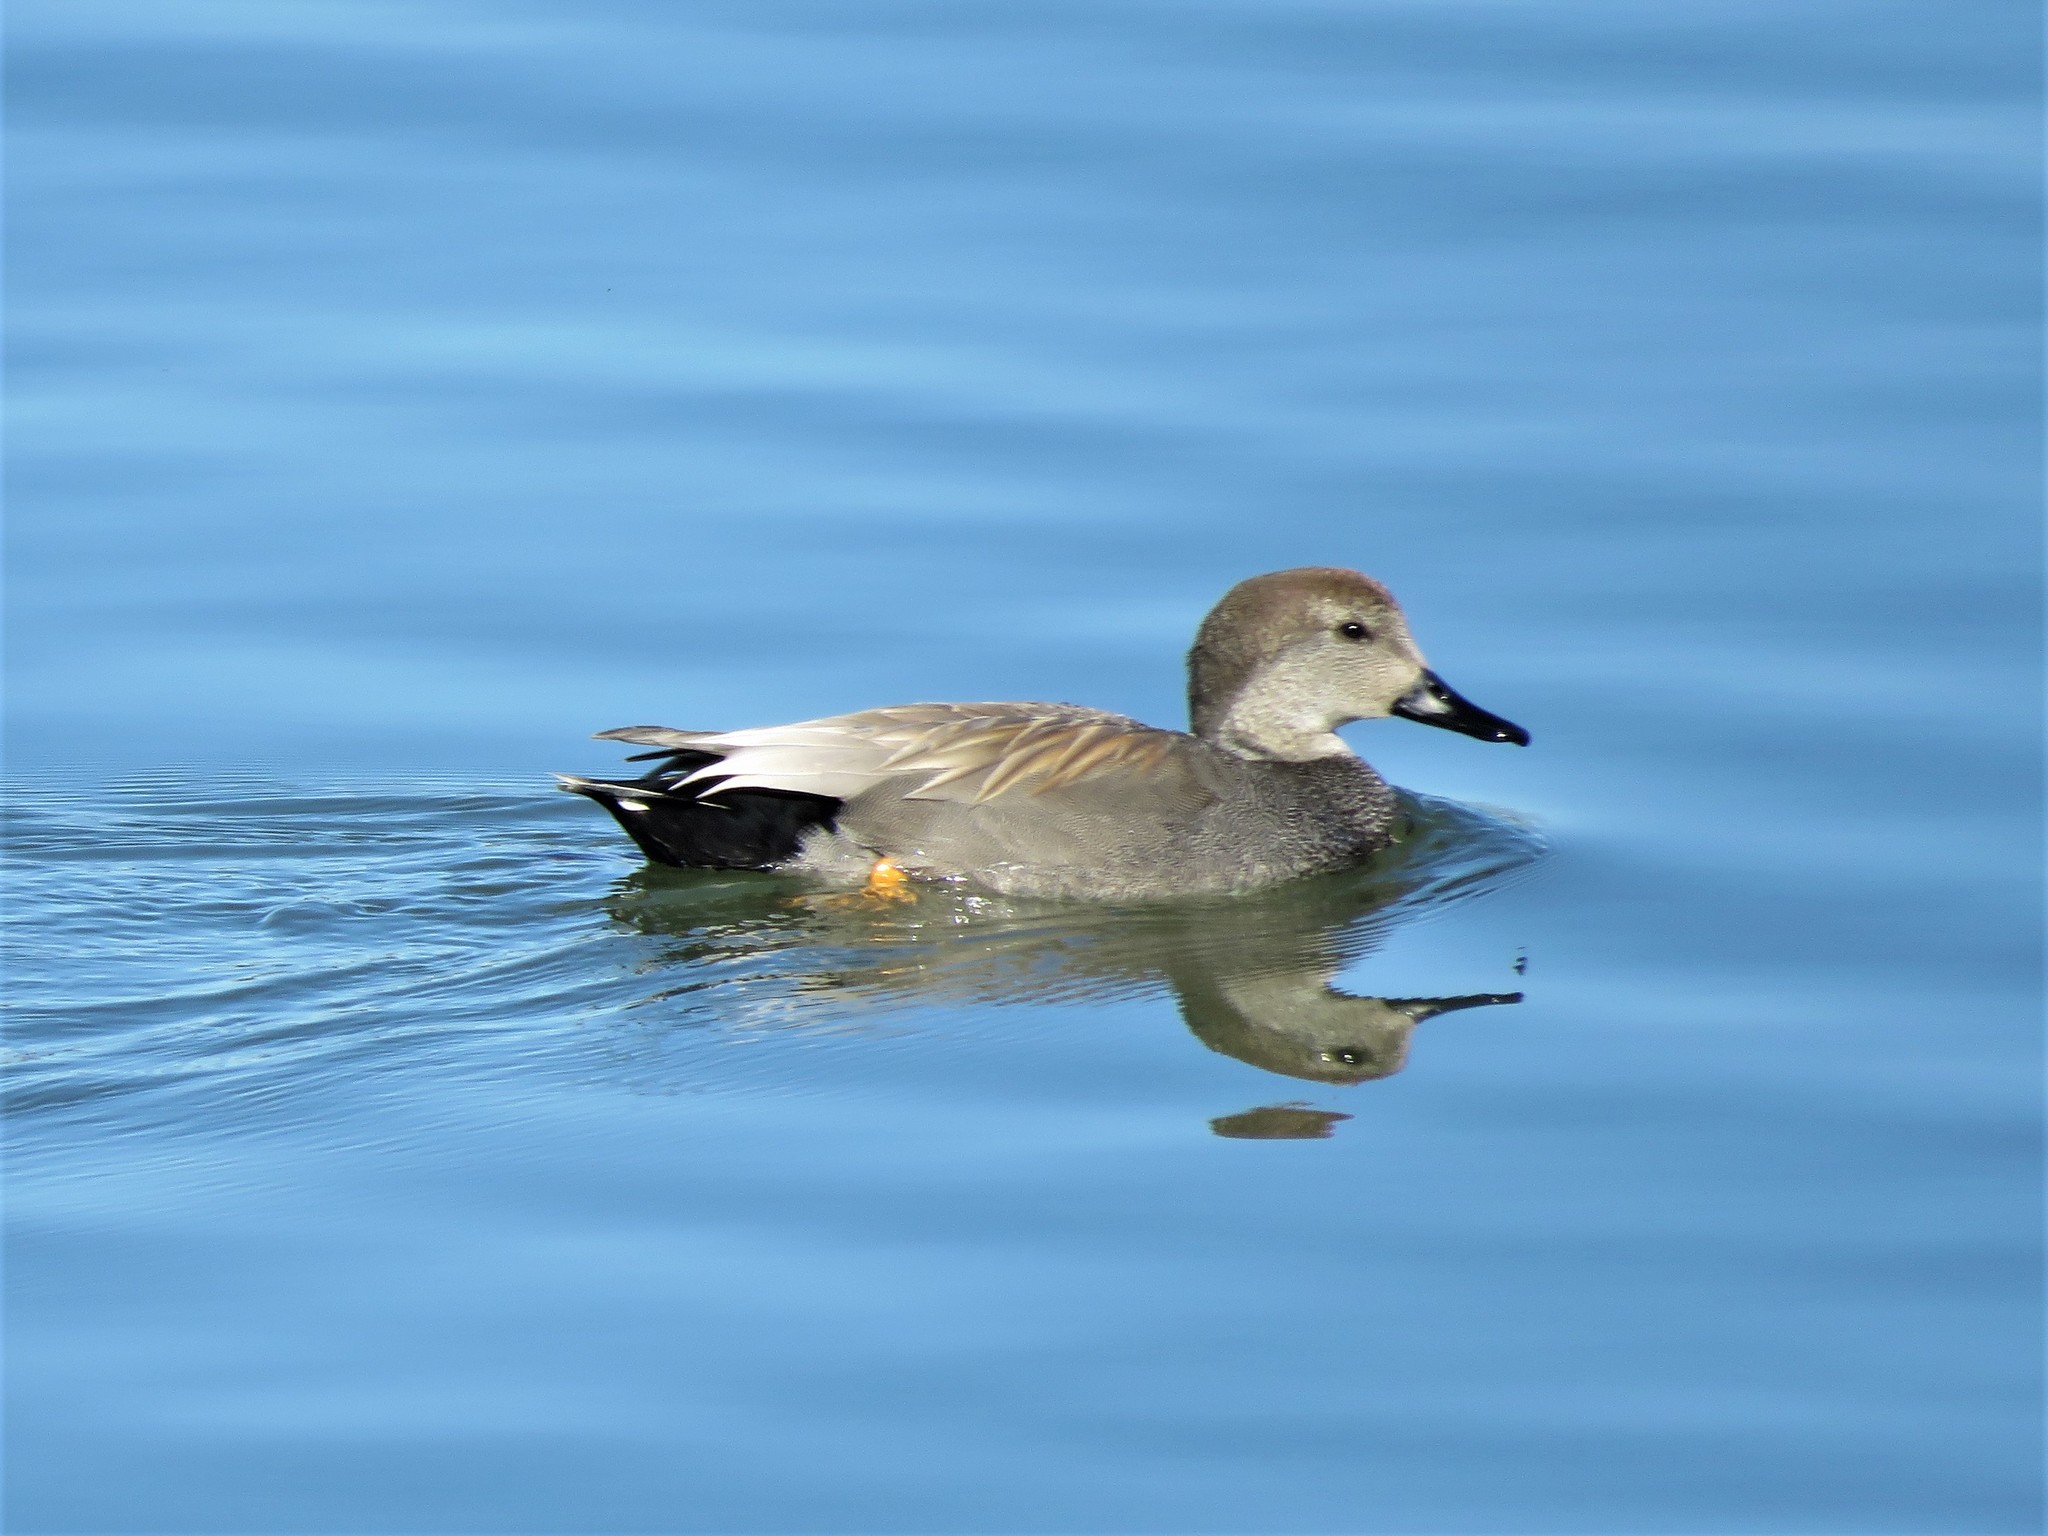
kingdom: Animalia
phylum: Chordata
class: Aves
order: Anseriformes
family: Anatidae
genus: Mareca
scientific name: Mareca strepera
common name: Gadwall
